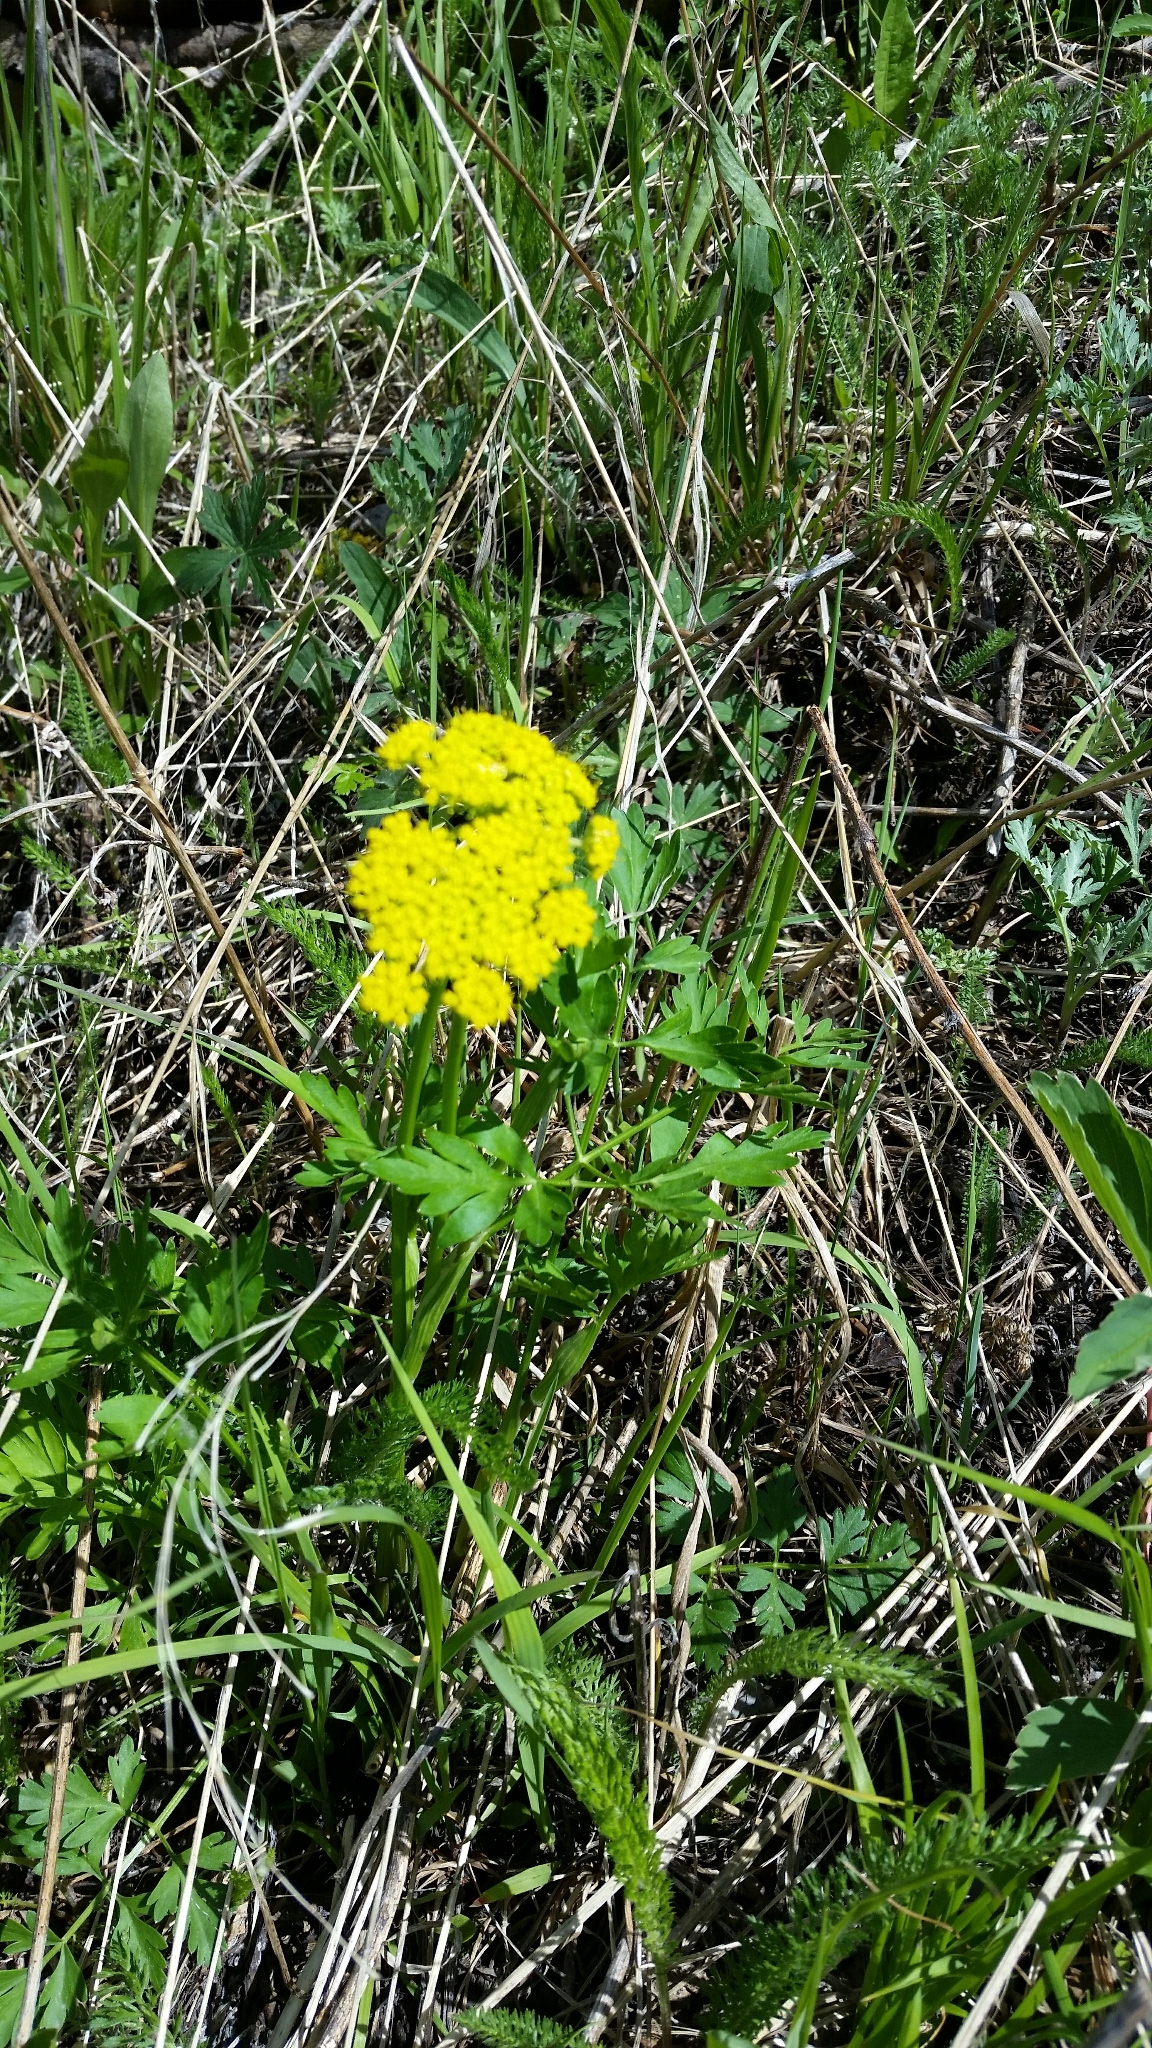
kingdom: Plantae
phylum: Tracheophyta
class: Magnoliopsida
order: Apiales
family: Apiaceae
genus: Cymopterus
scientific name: Cymopterus lemmonii
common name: Lemmon's spring-parsley
